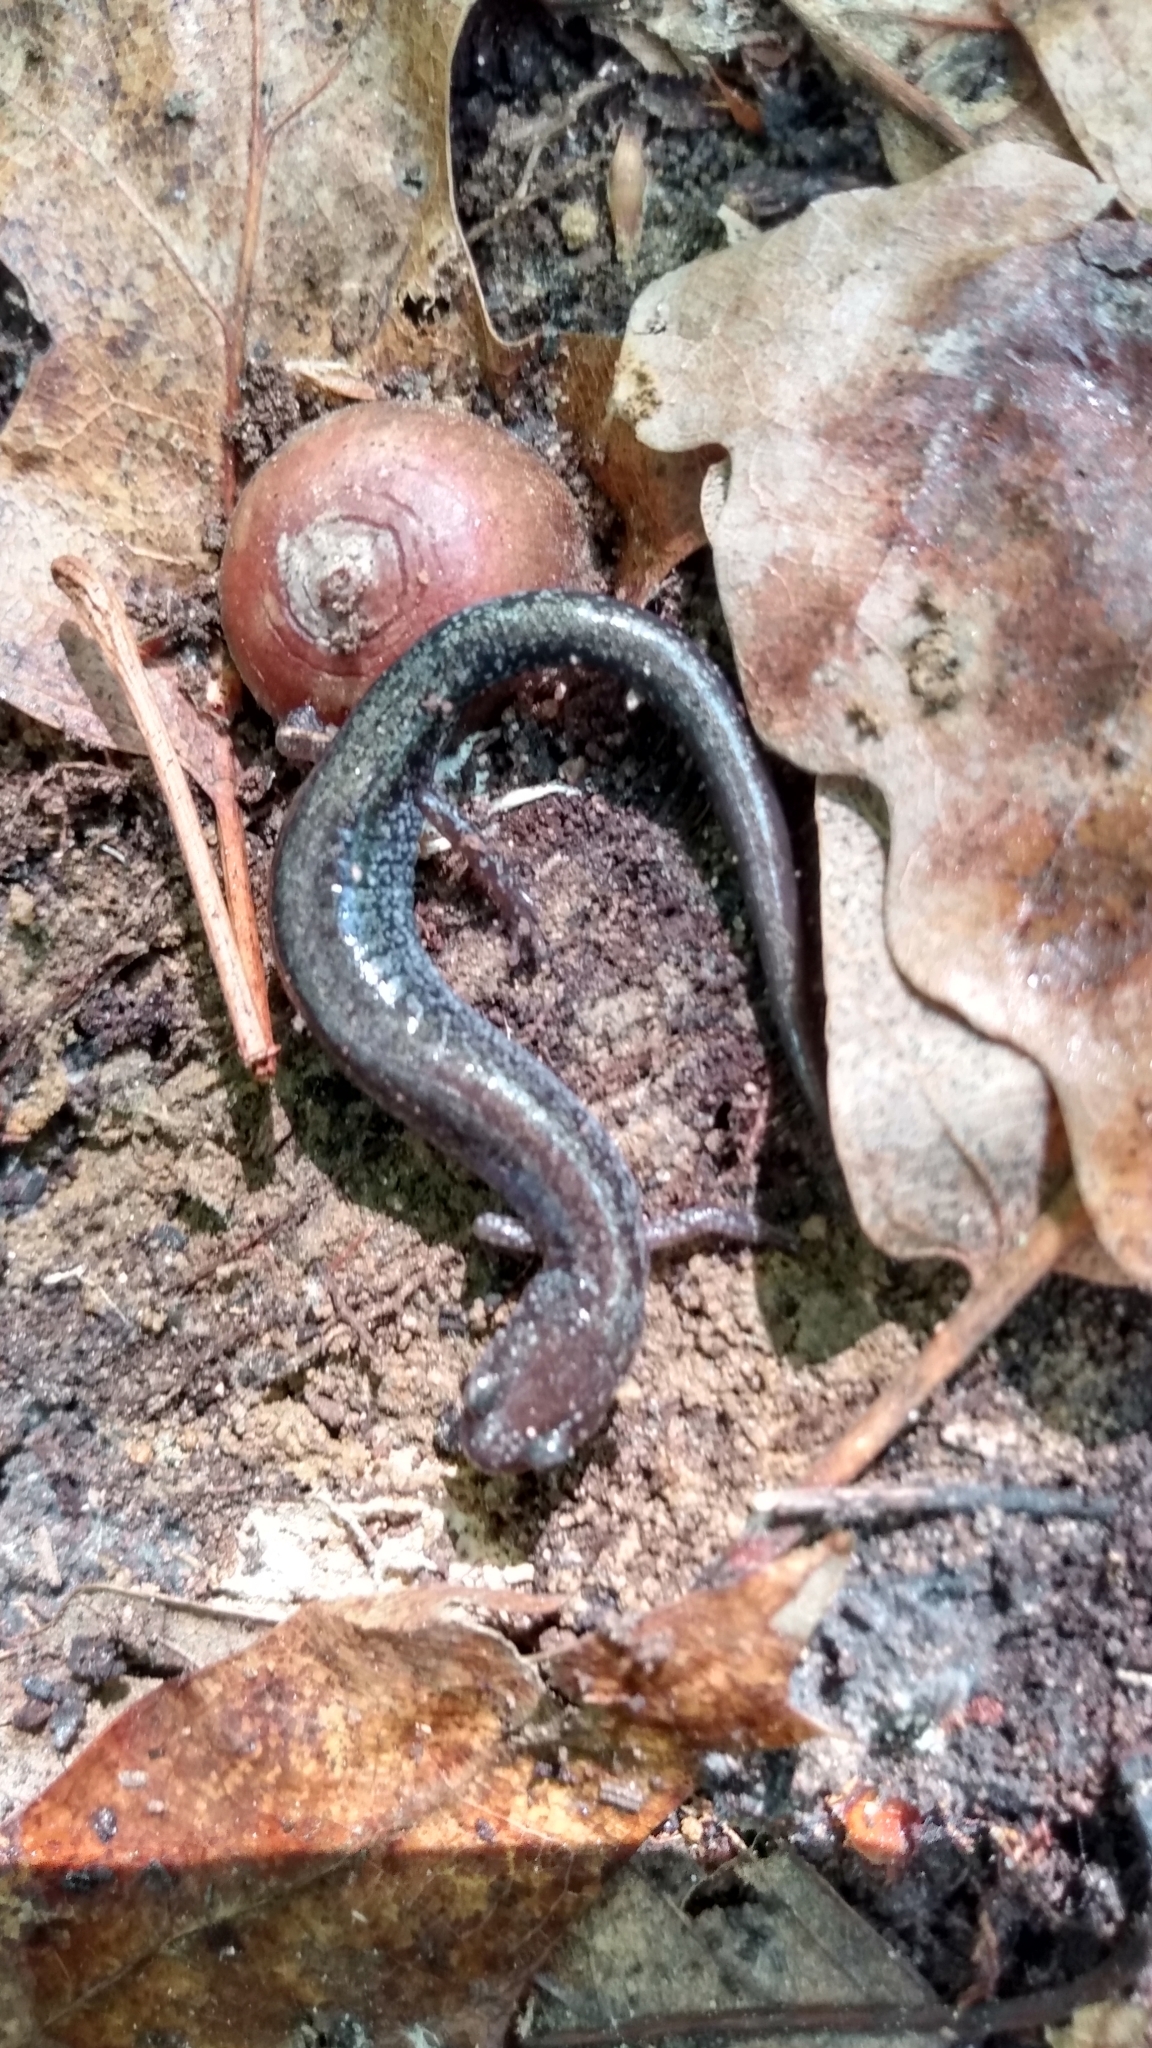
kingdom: Animalia
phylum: Chordata
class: Amphibia
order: Caudata
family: Plethodontidae
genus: Plethodon
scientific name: Plethodon cinereus
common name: Redback salamander
